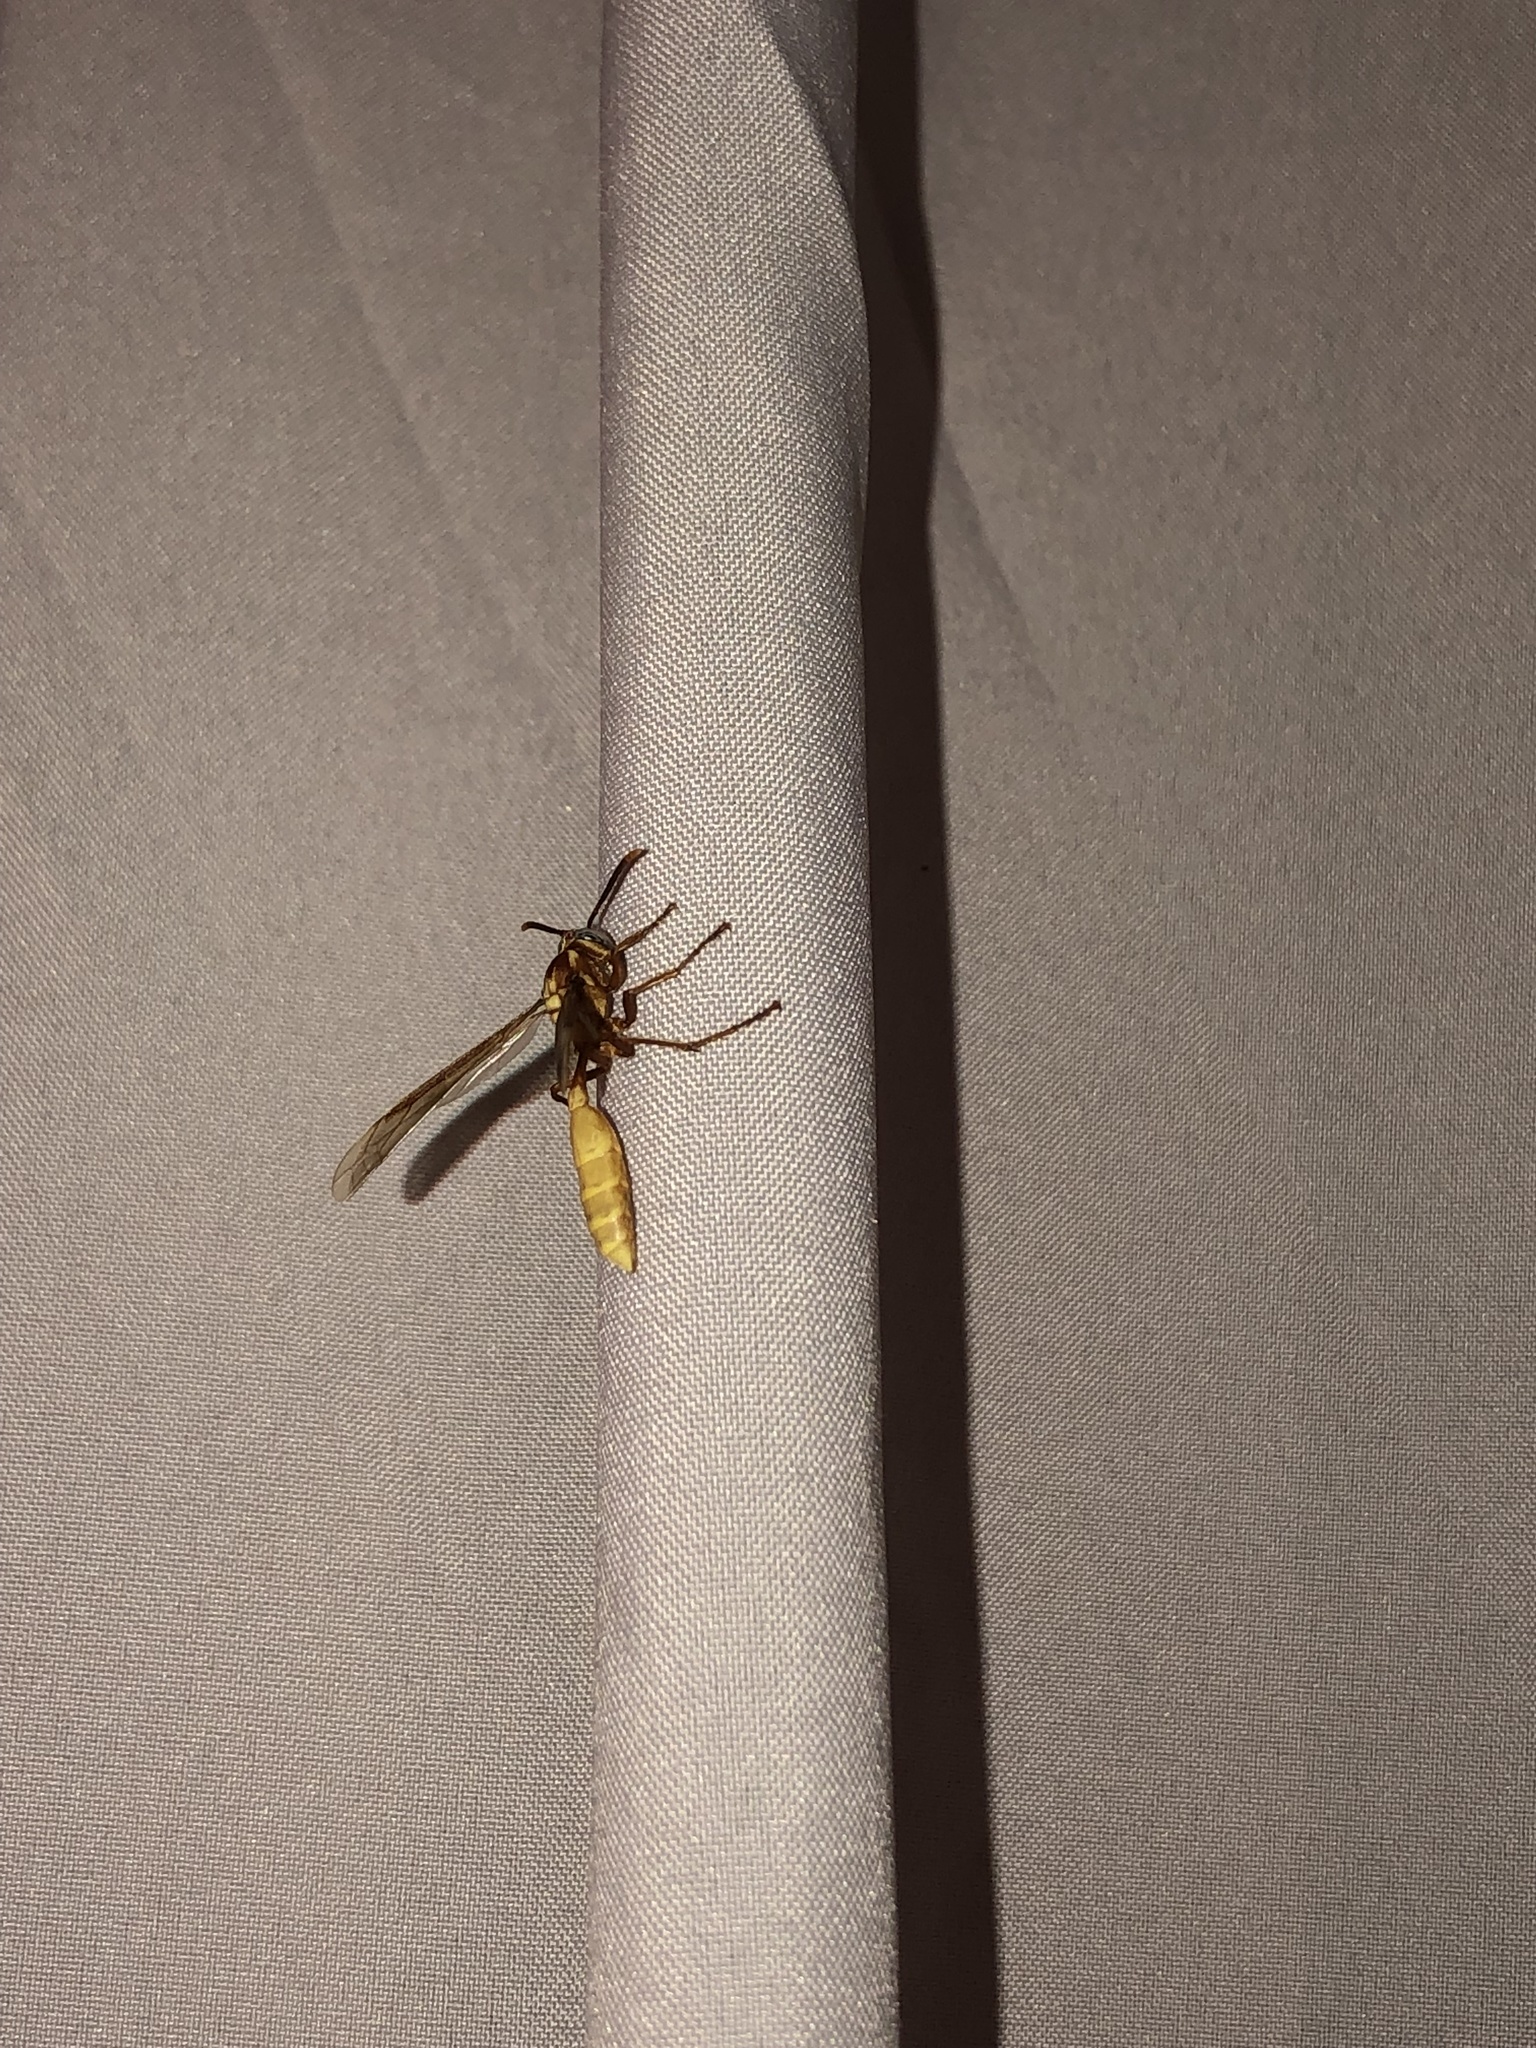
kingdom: Animalia
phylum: Arthropoda
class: Insecta
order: Hymenoptera
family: Vespidae
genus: Apoica
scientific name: Apoica flavissima
